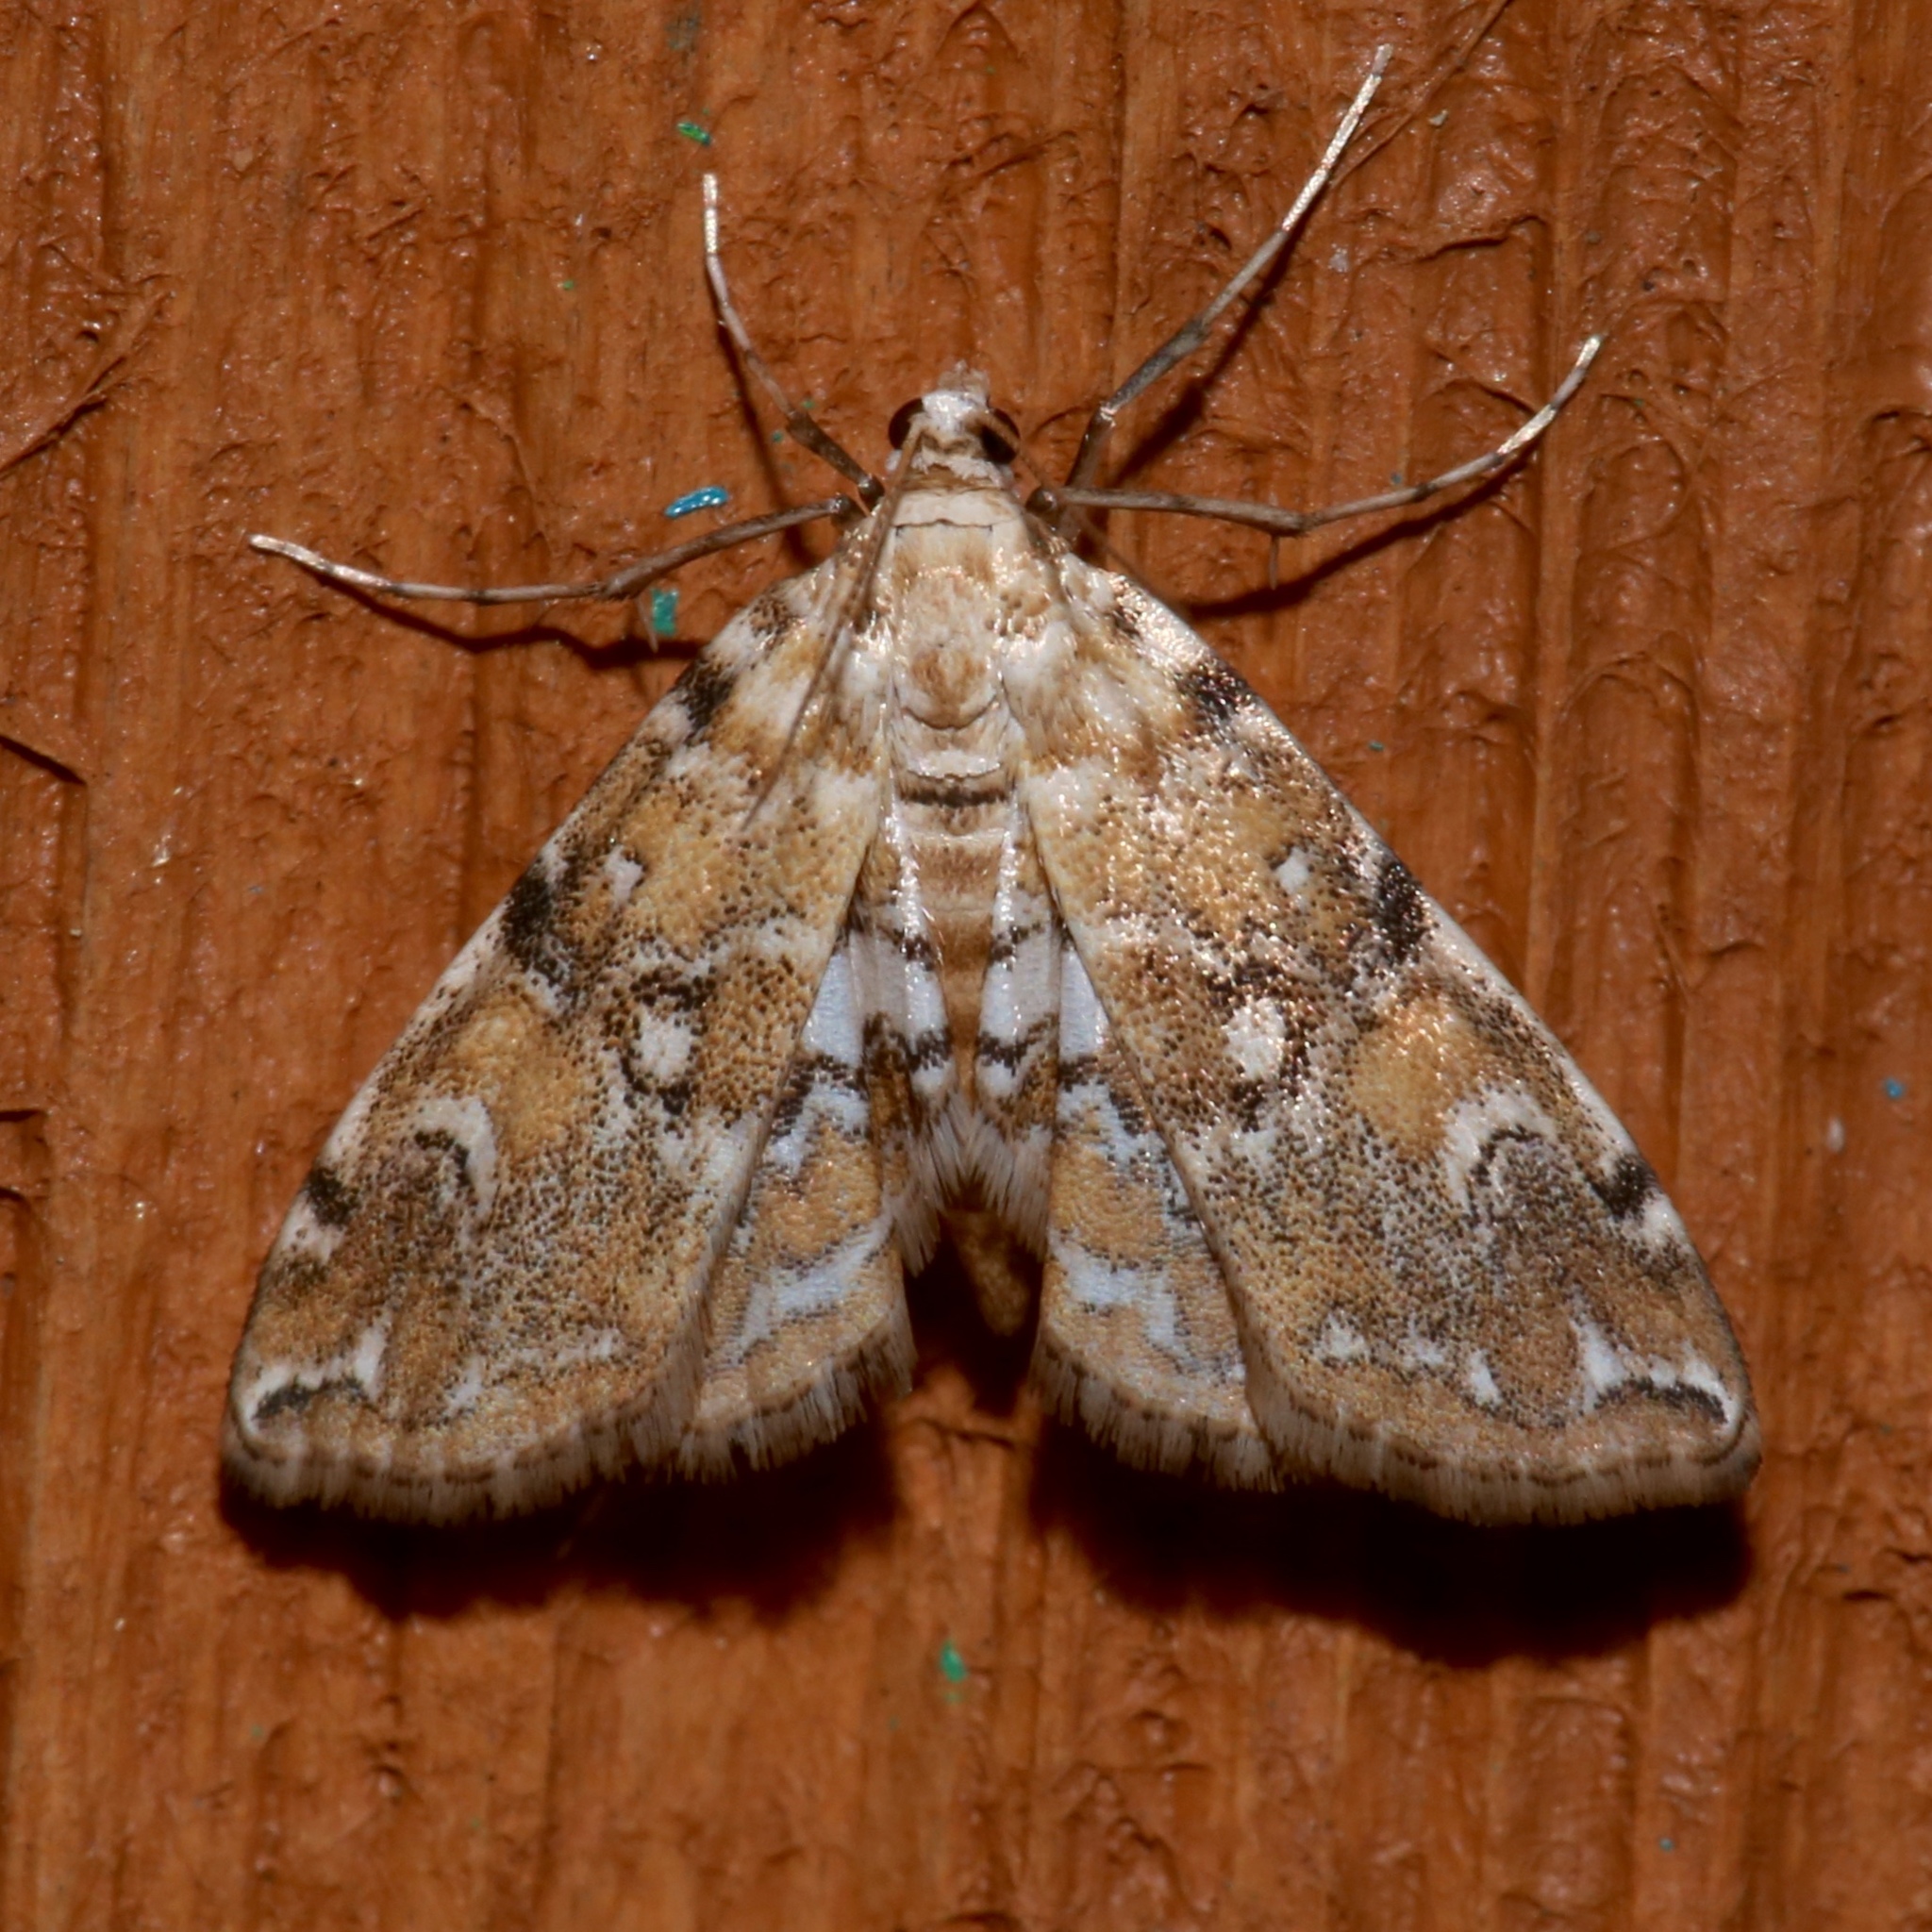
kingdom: Animalia
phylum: Arthropoda
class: Insecta
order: Lepidoptera
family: Crambidae
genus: Elophila
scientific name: Elophila faulalis
